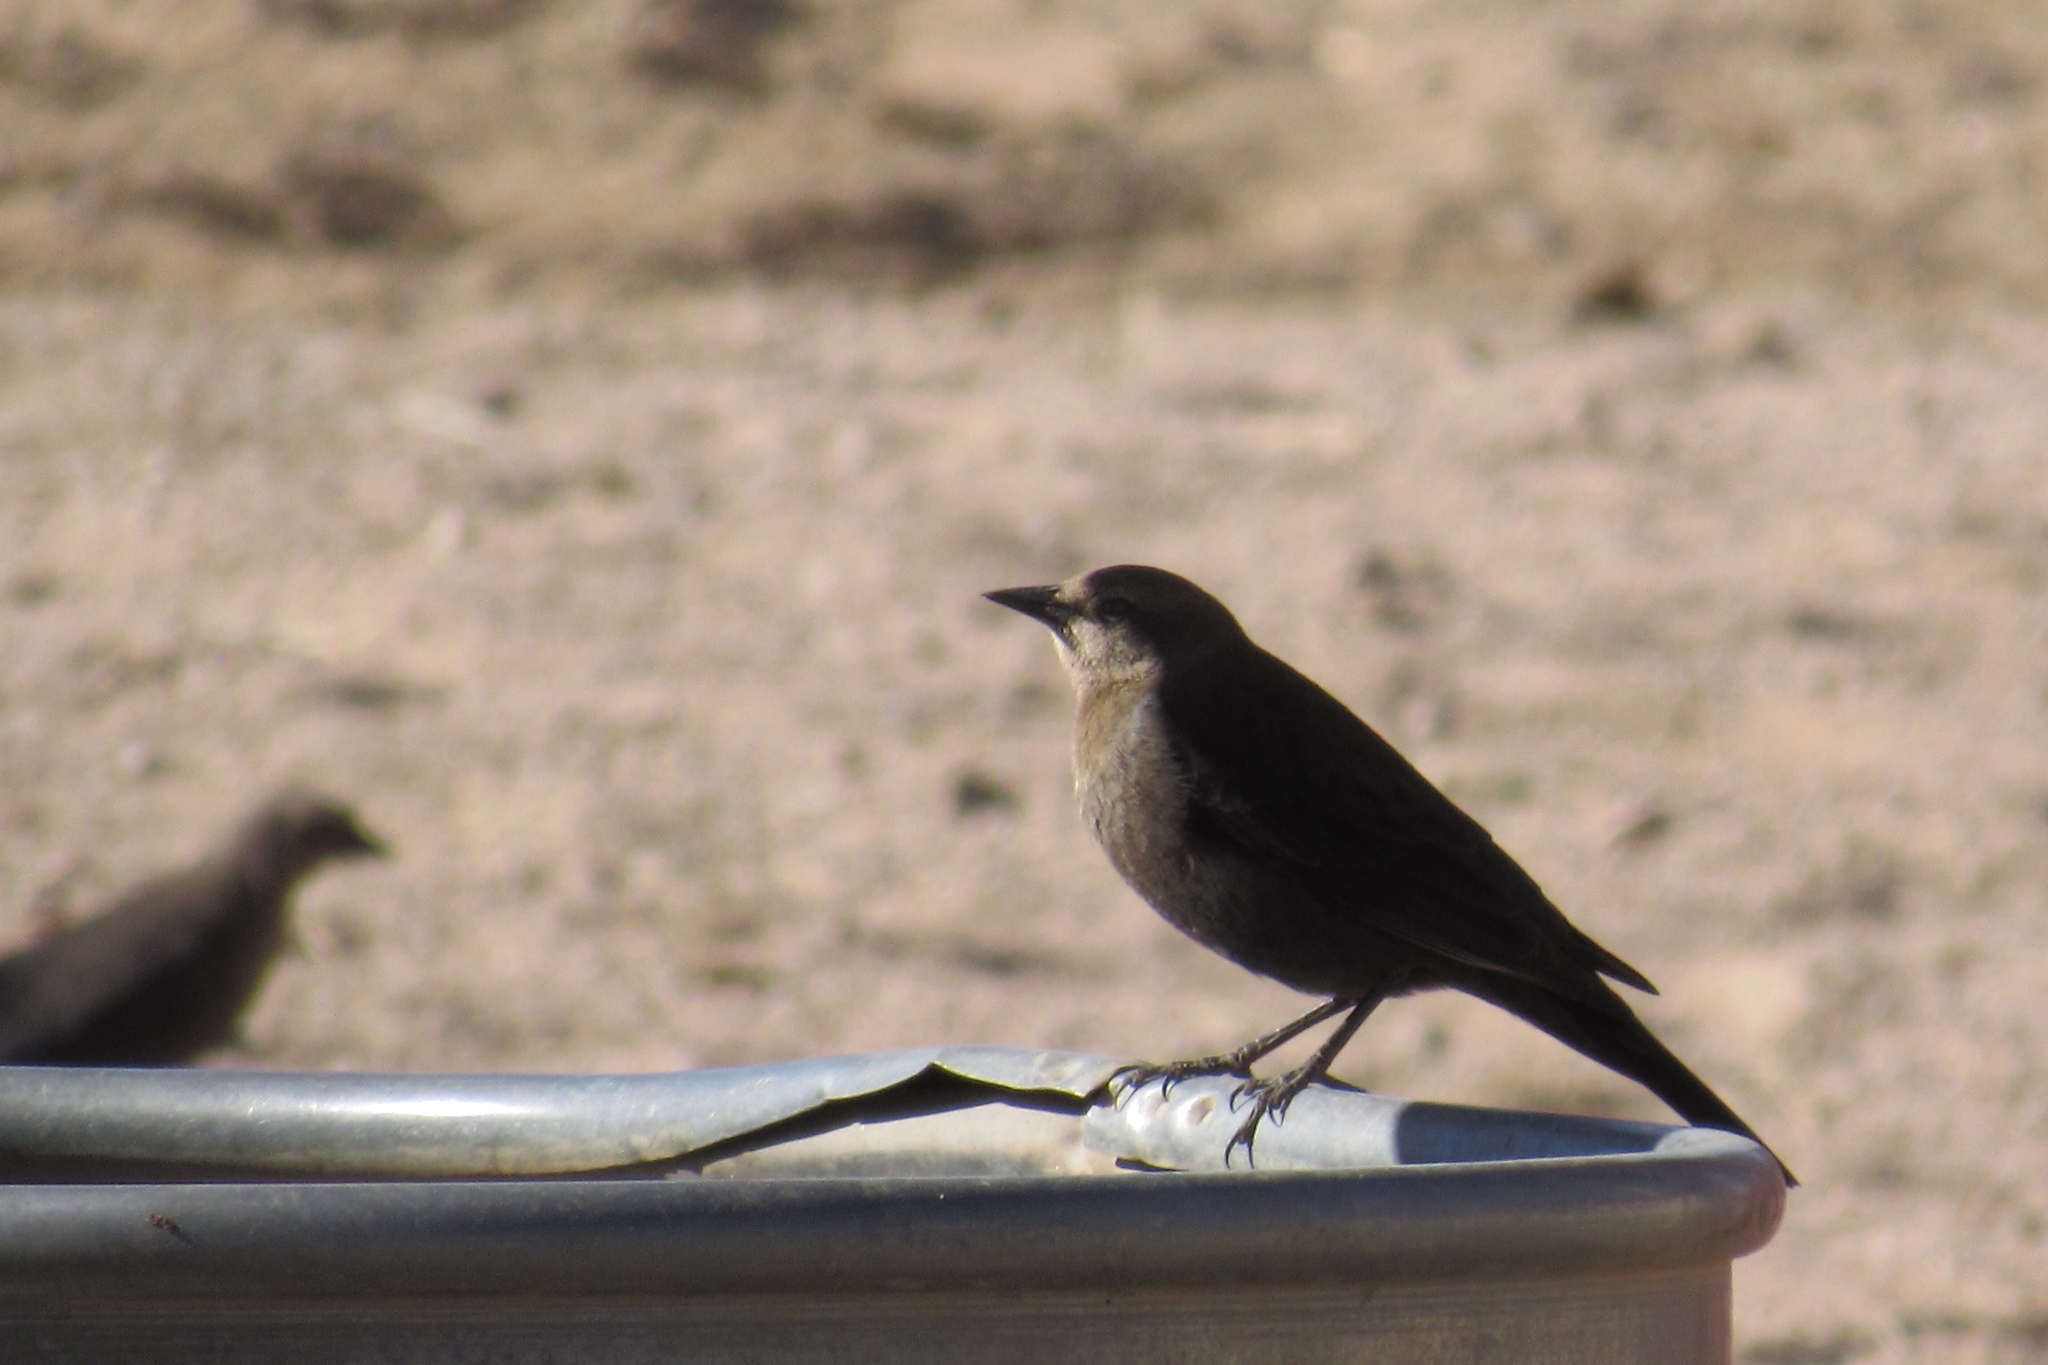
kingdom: Animalia
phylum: Chordata
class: Aves
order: Passeriformes
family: Icteridae
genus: Euphagus
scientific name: Euphagus cyanocephalus
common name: Brewer's blackbird
